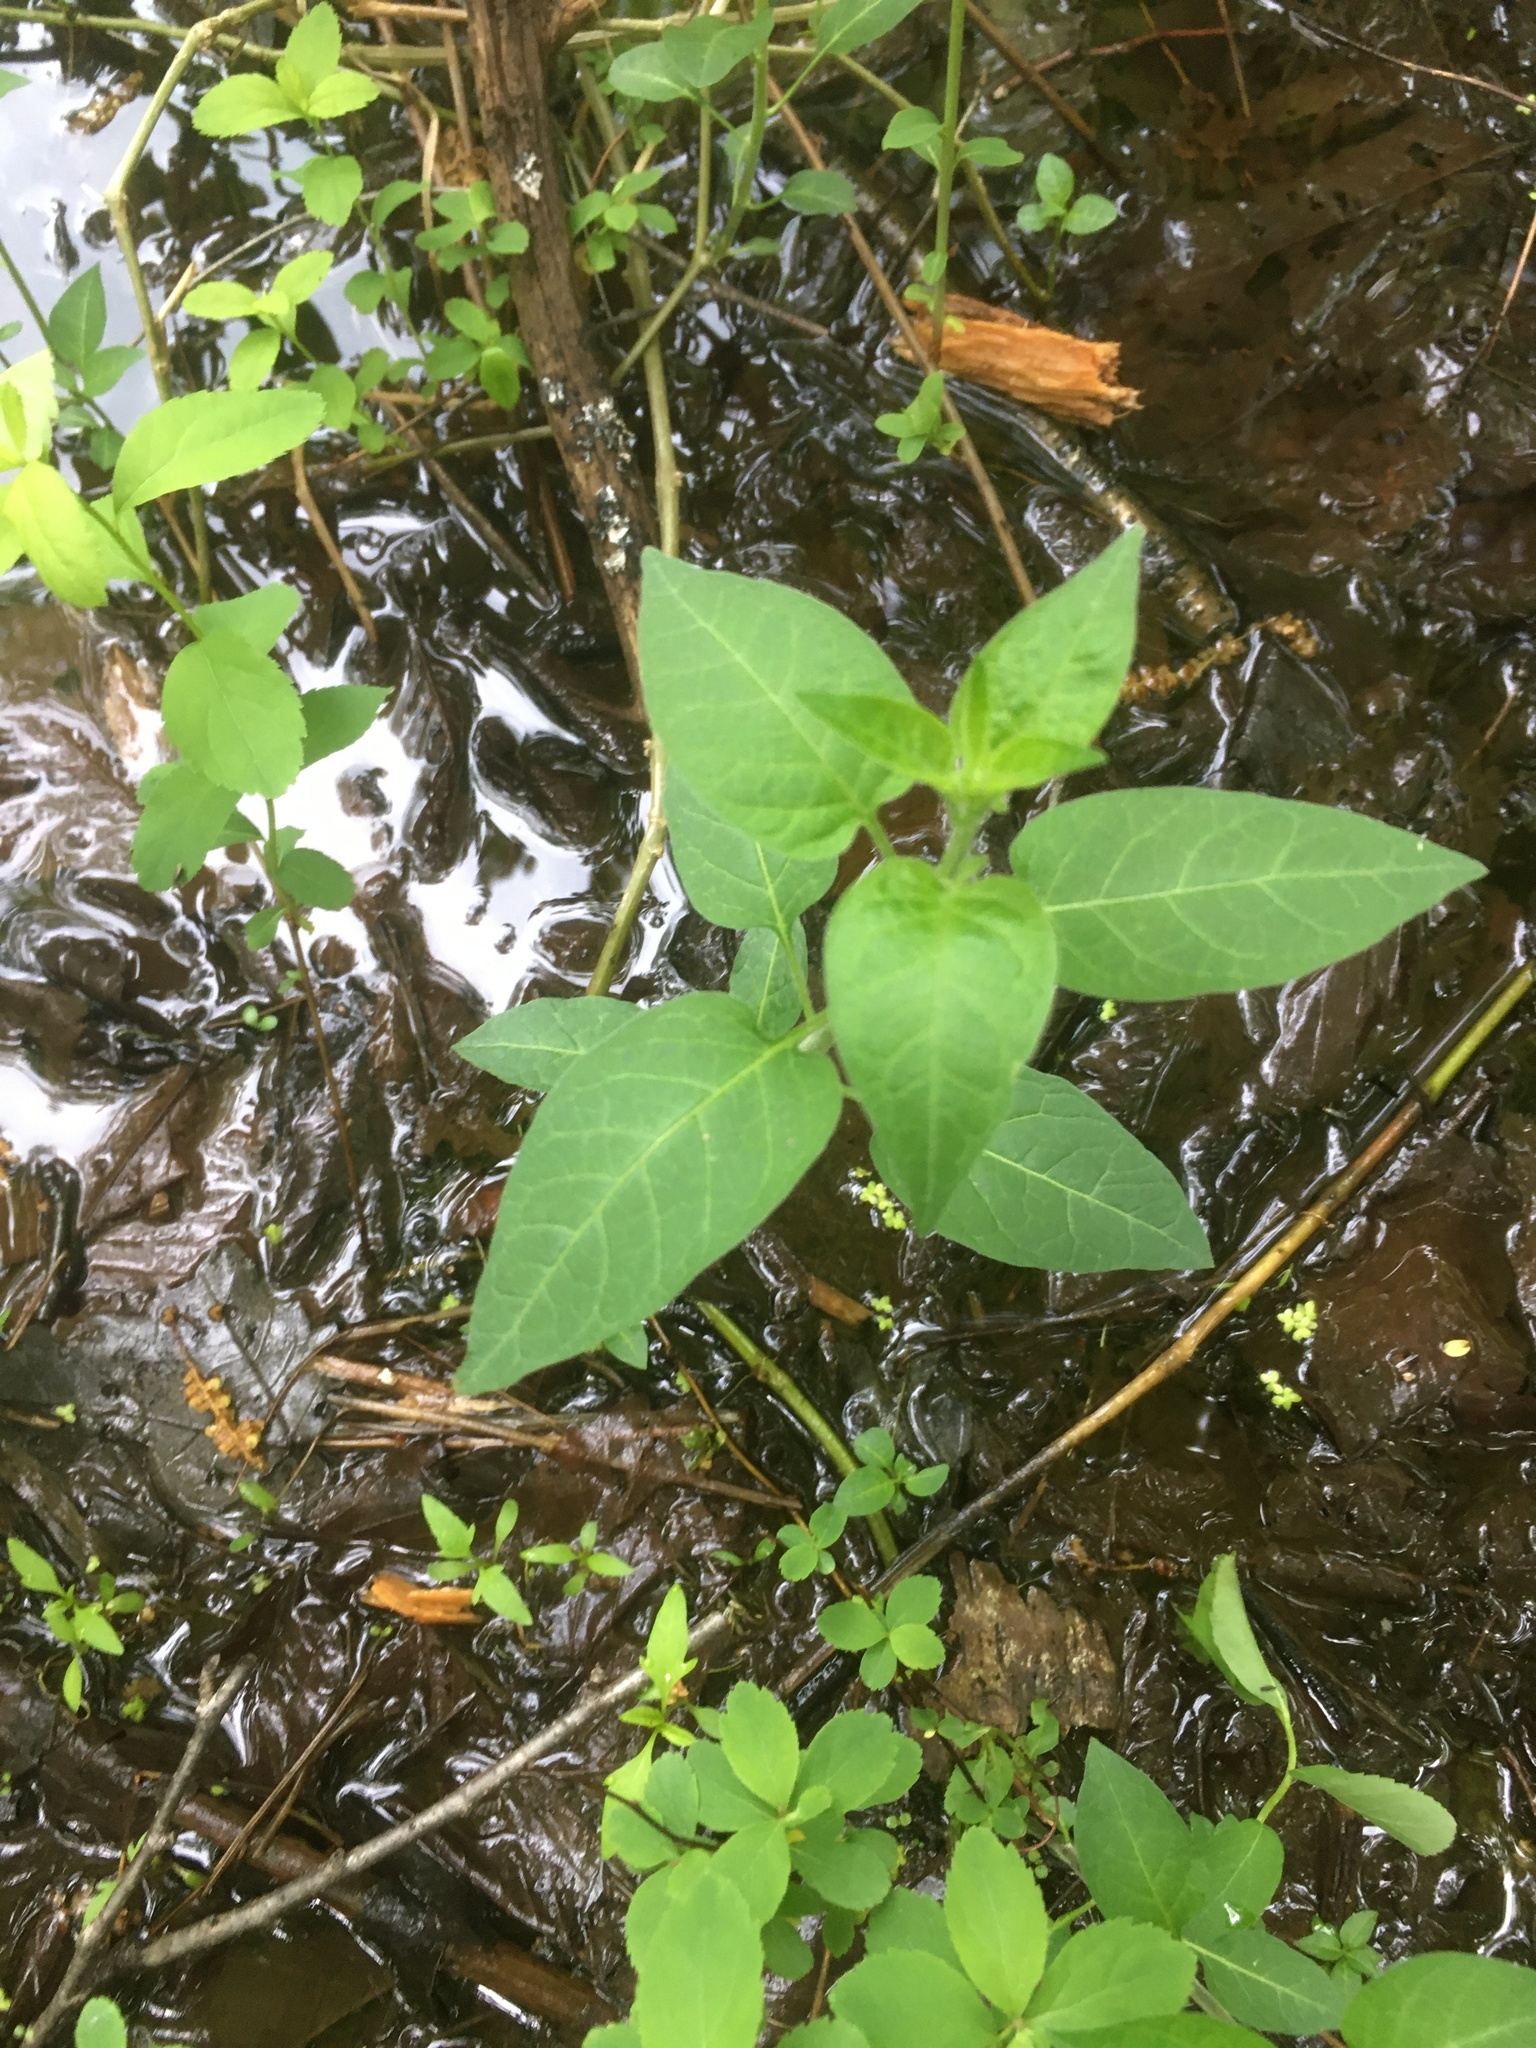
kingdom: Plantae
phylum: Tracheophyta
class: Magnoliopsida
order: Solanales
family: Solanaceae
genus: Solanum
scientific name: Solanum dulcamara
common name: Climbing nightshade
